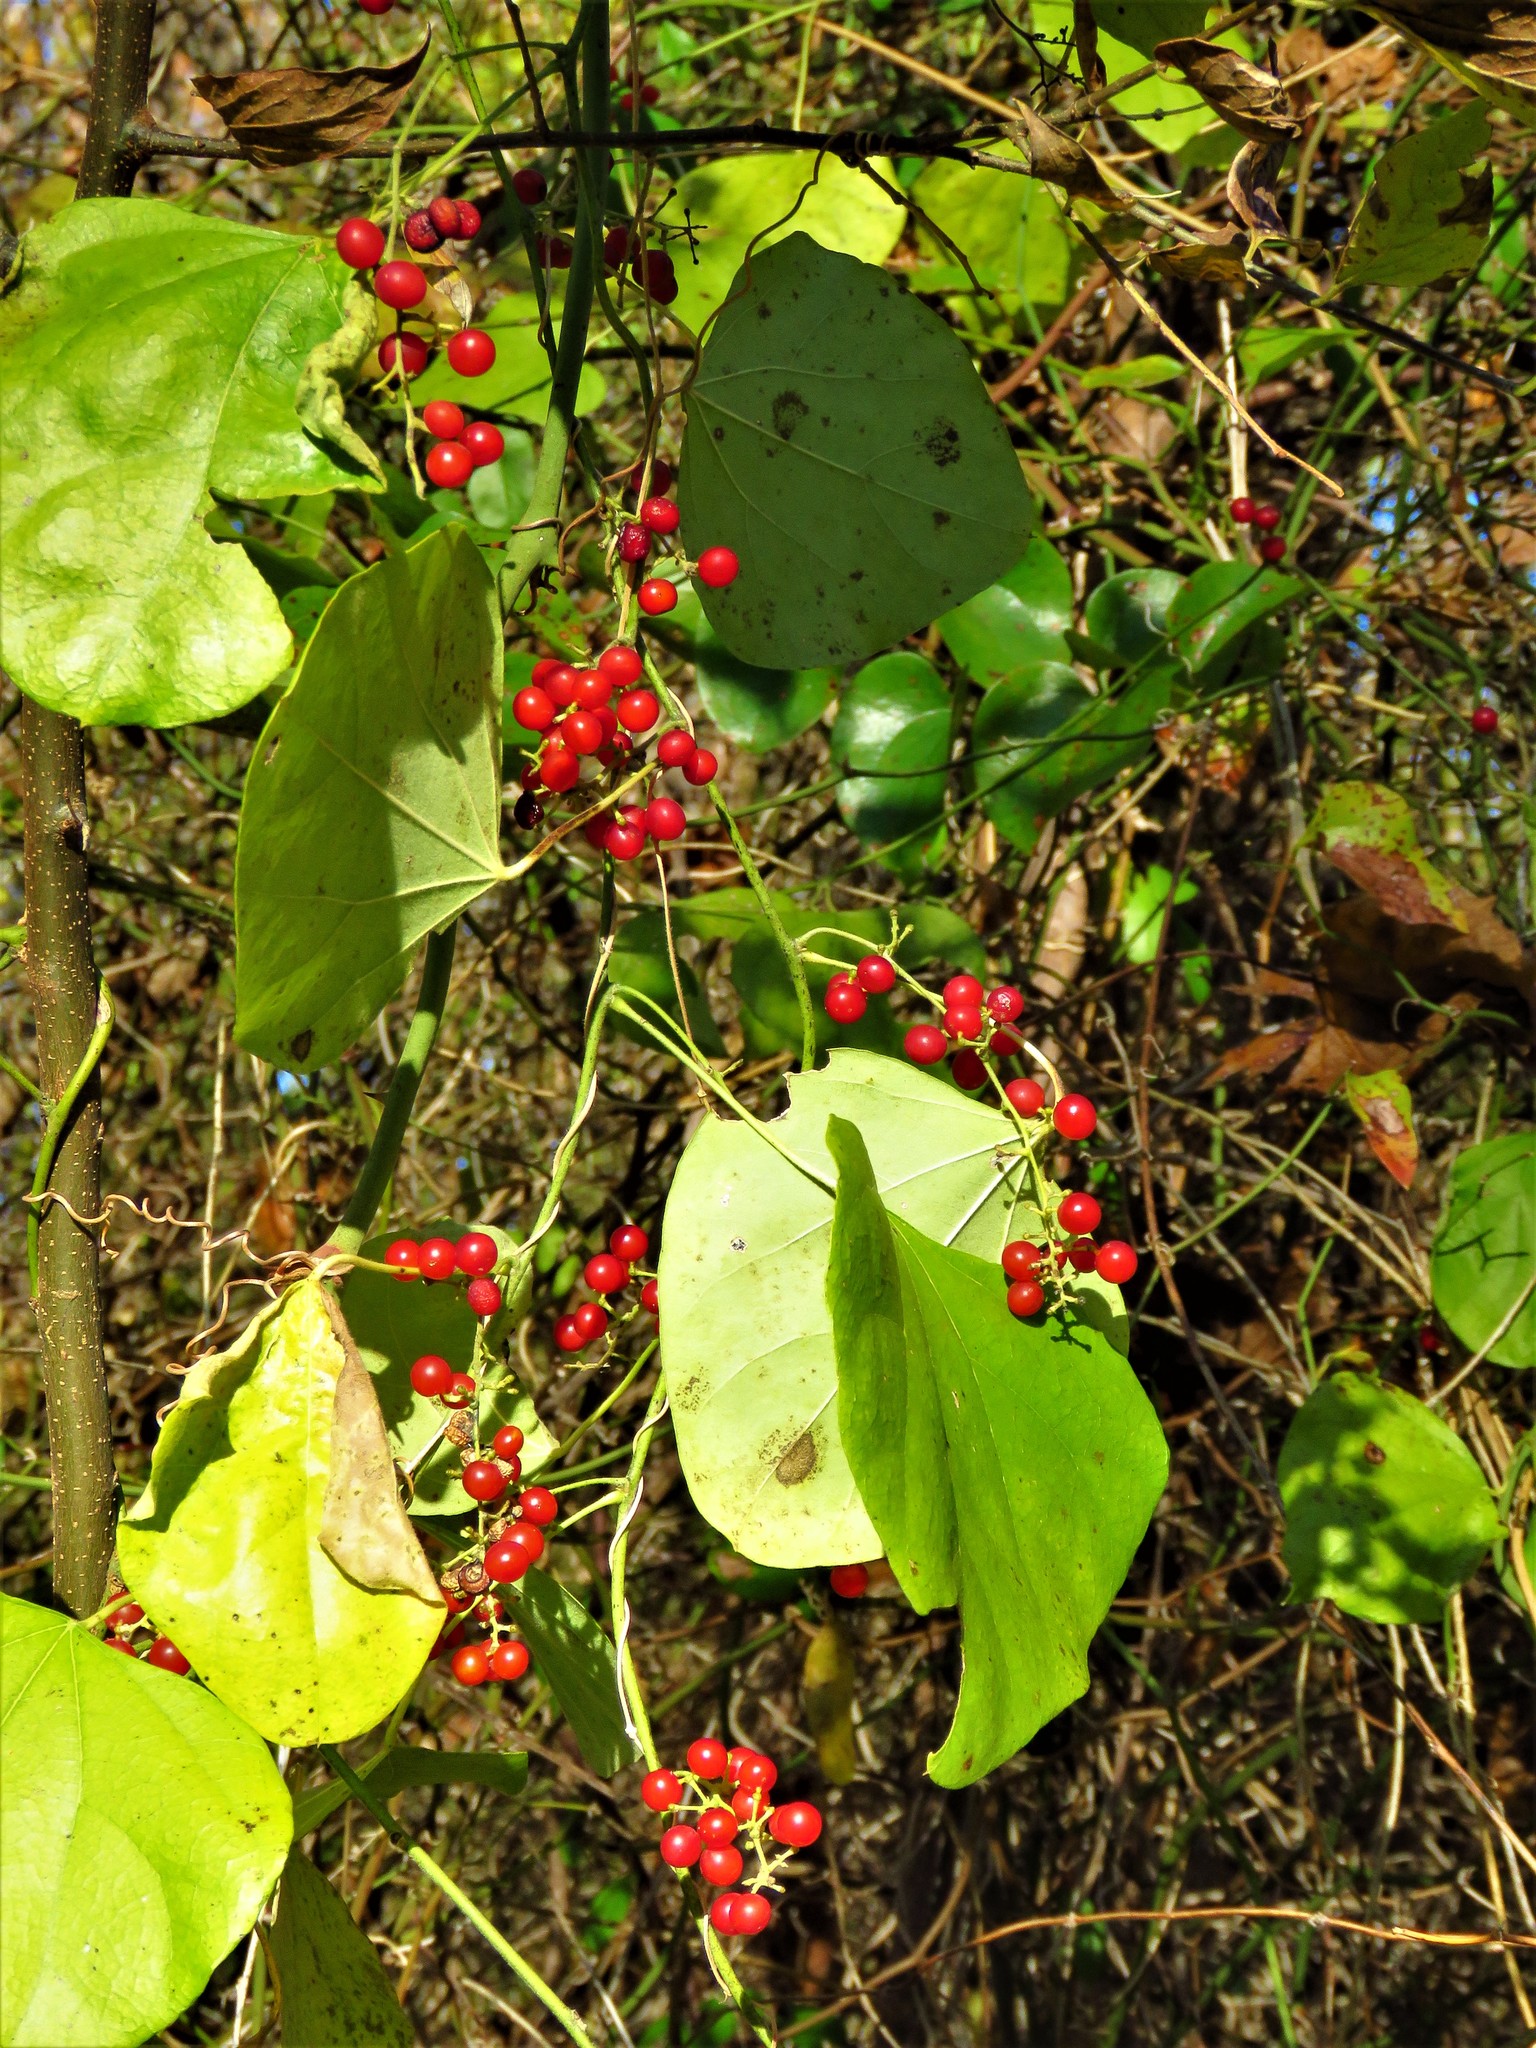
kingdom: Plantae
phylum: Tracheophyta
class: Magnoliopsida
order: Ranunculales
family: Menispermaceae
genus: Cocculus
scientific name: Cocculus carolinus
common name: Carolina moonseed
